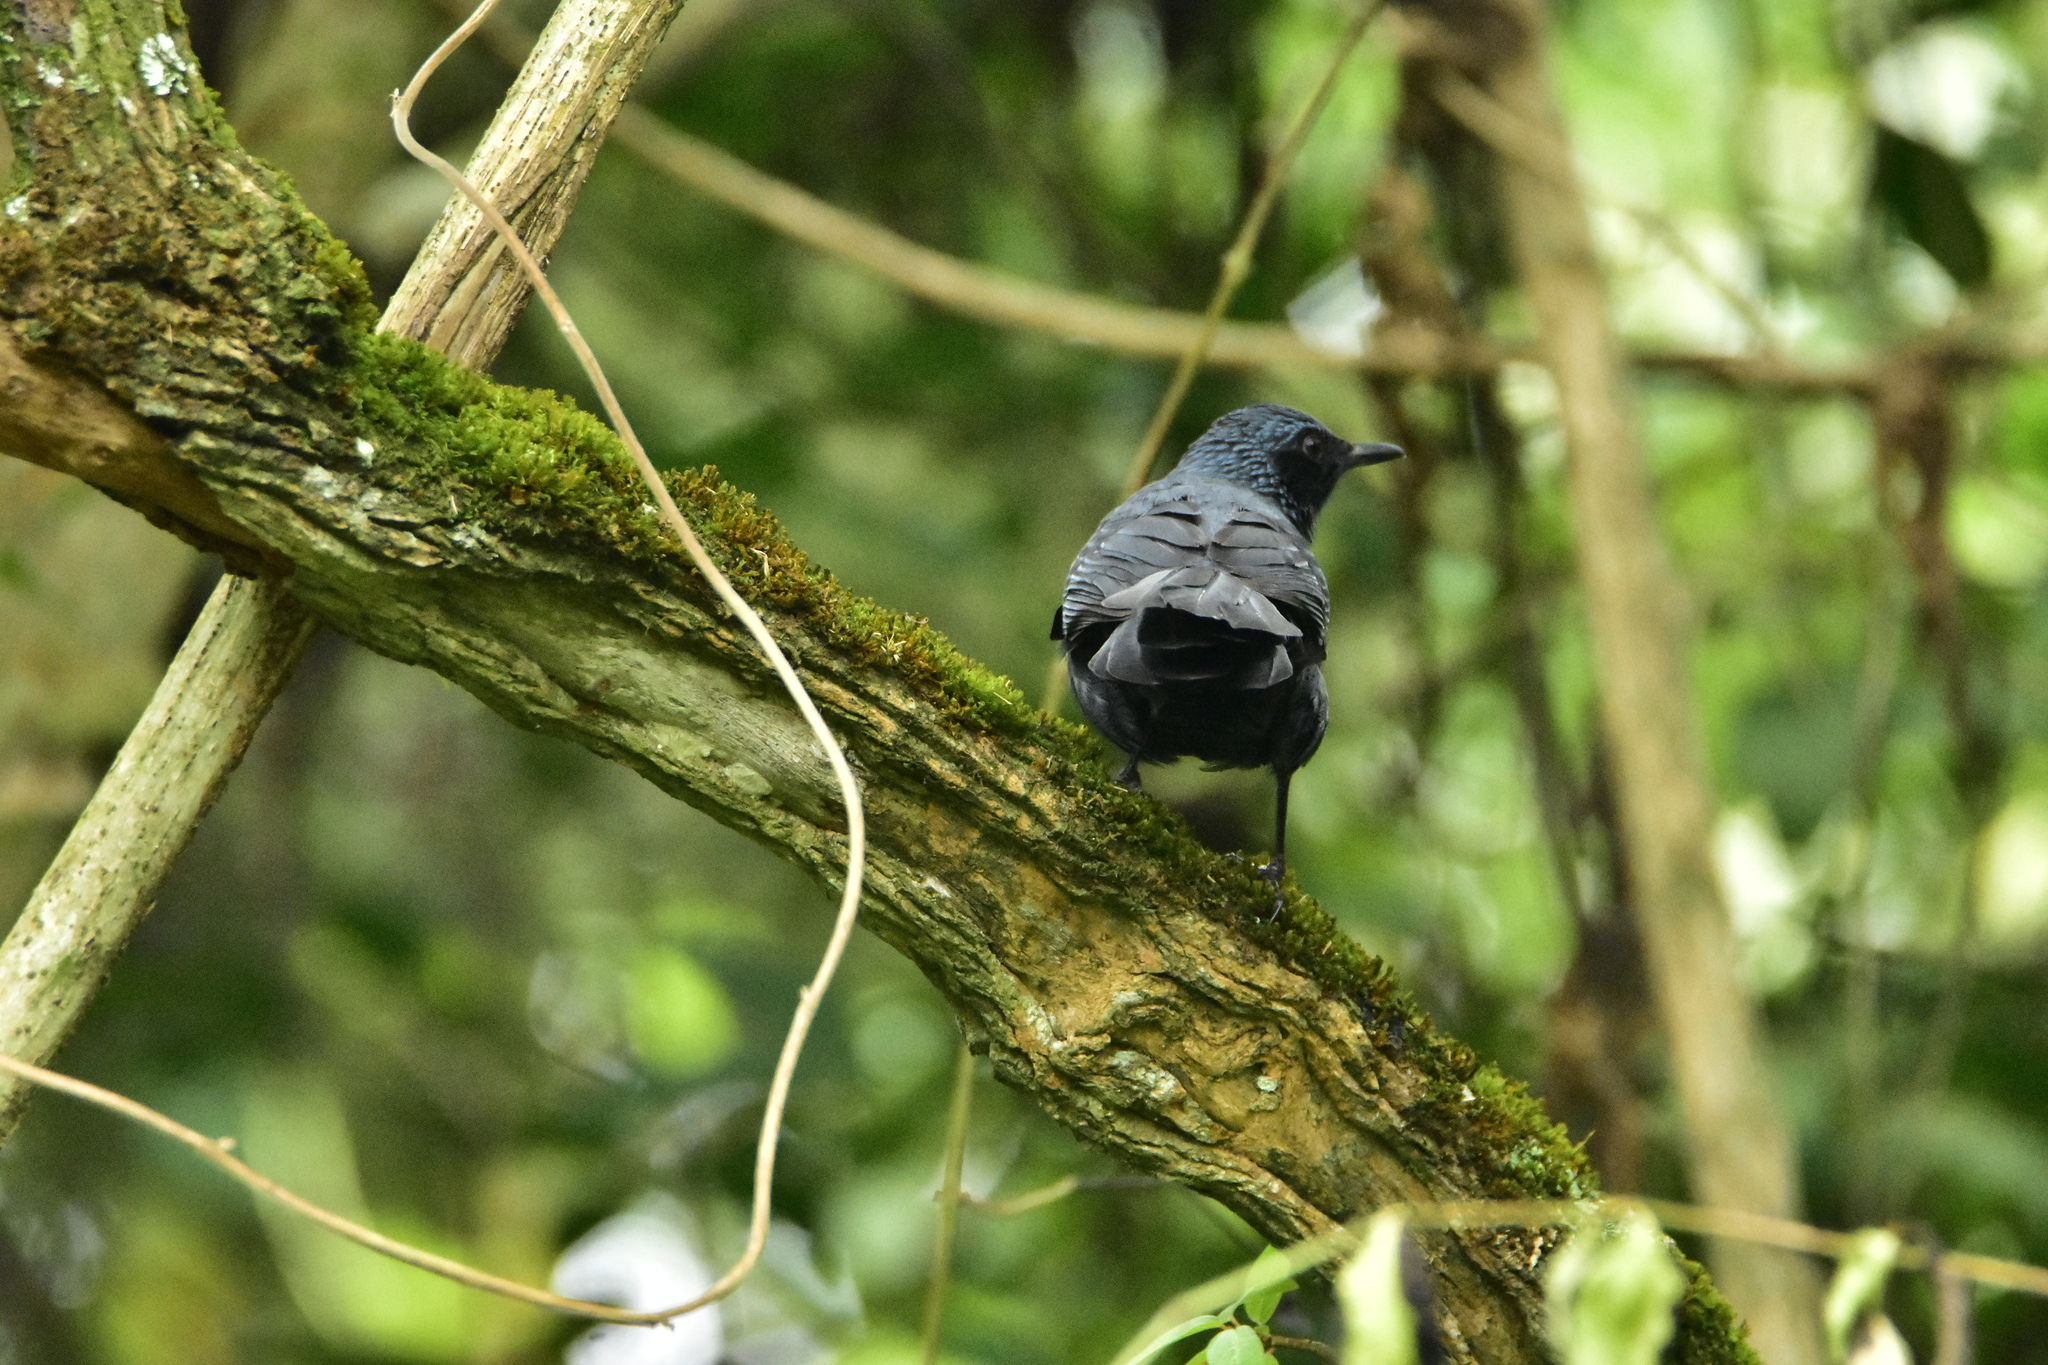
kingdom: Animalia
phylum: Chordata
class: Aves
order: Passeriformes
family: Mimidae
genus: Melanotis
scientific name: Melanotis caerulescens
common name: Blue mockingbird
